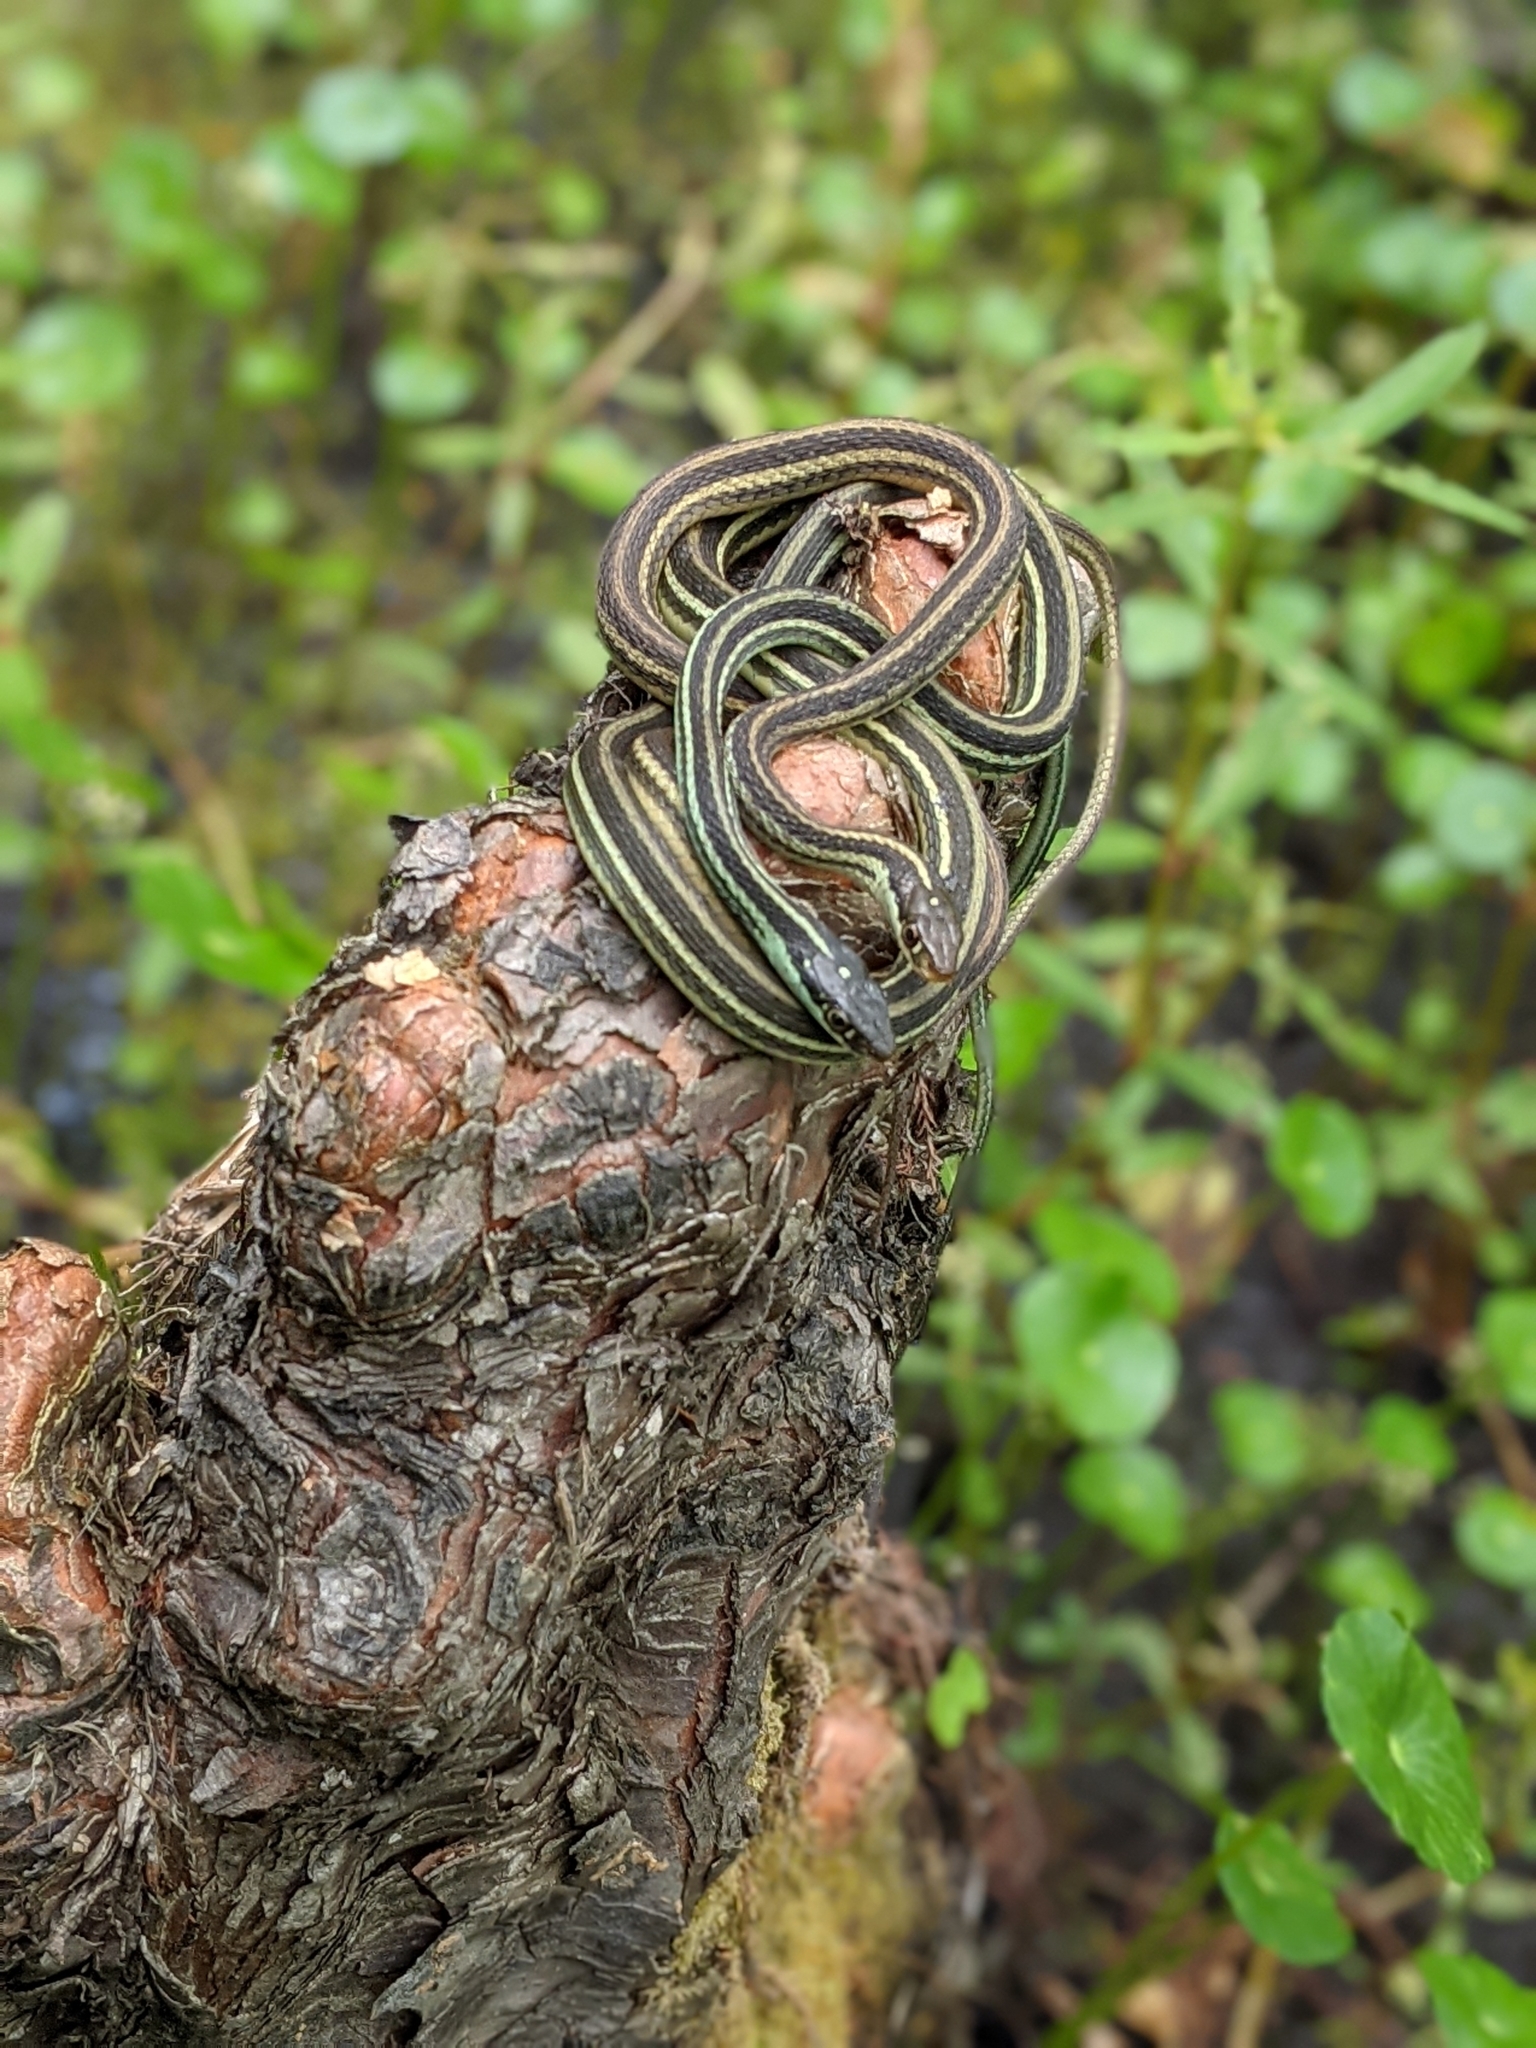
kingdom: Animalia
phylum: Chordata
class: Squamata
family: Colubridae
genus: Thamnophis
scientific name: Thamnophis proximus
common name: Western ribbon snake
